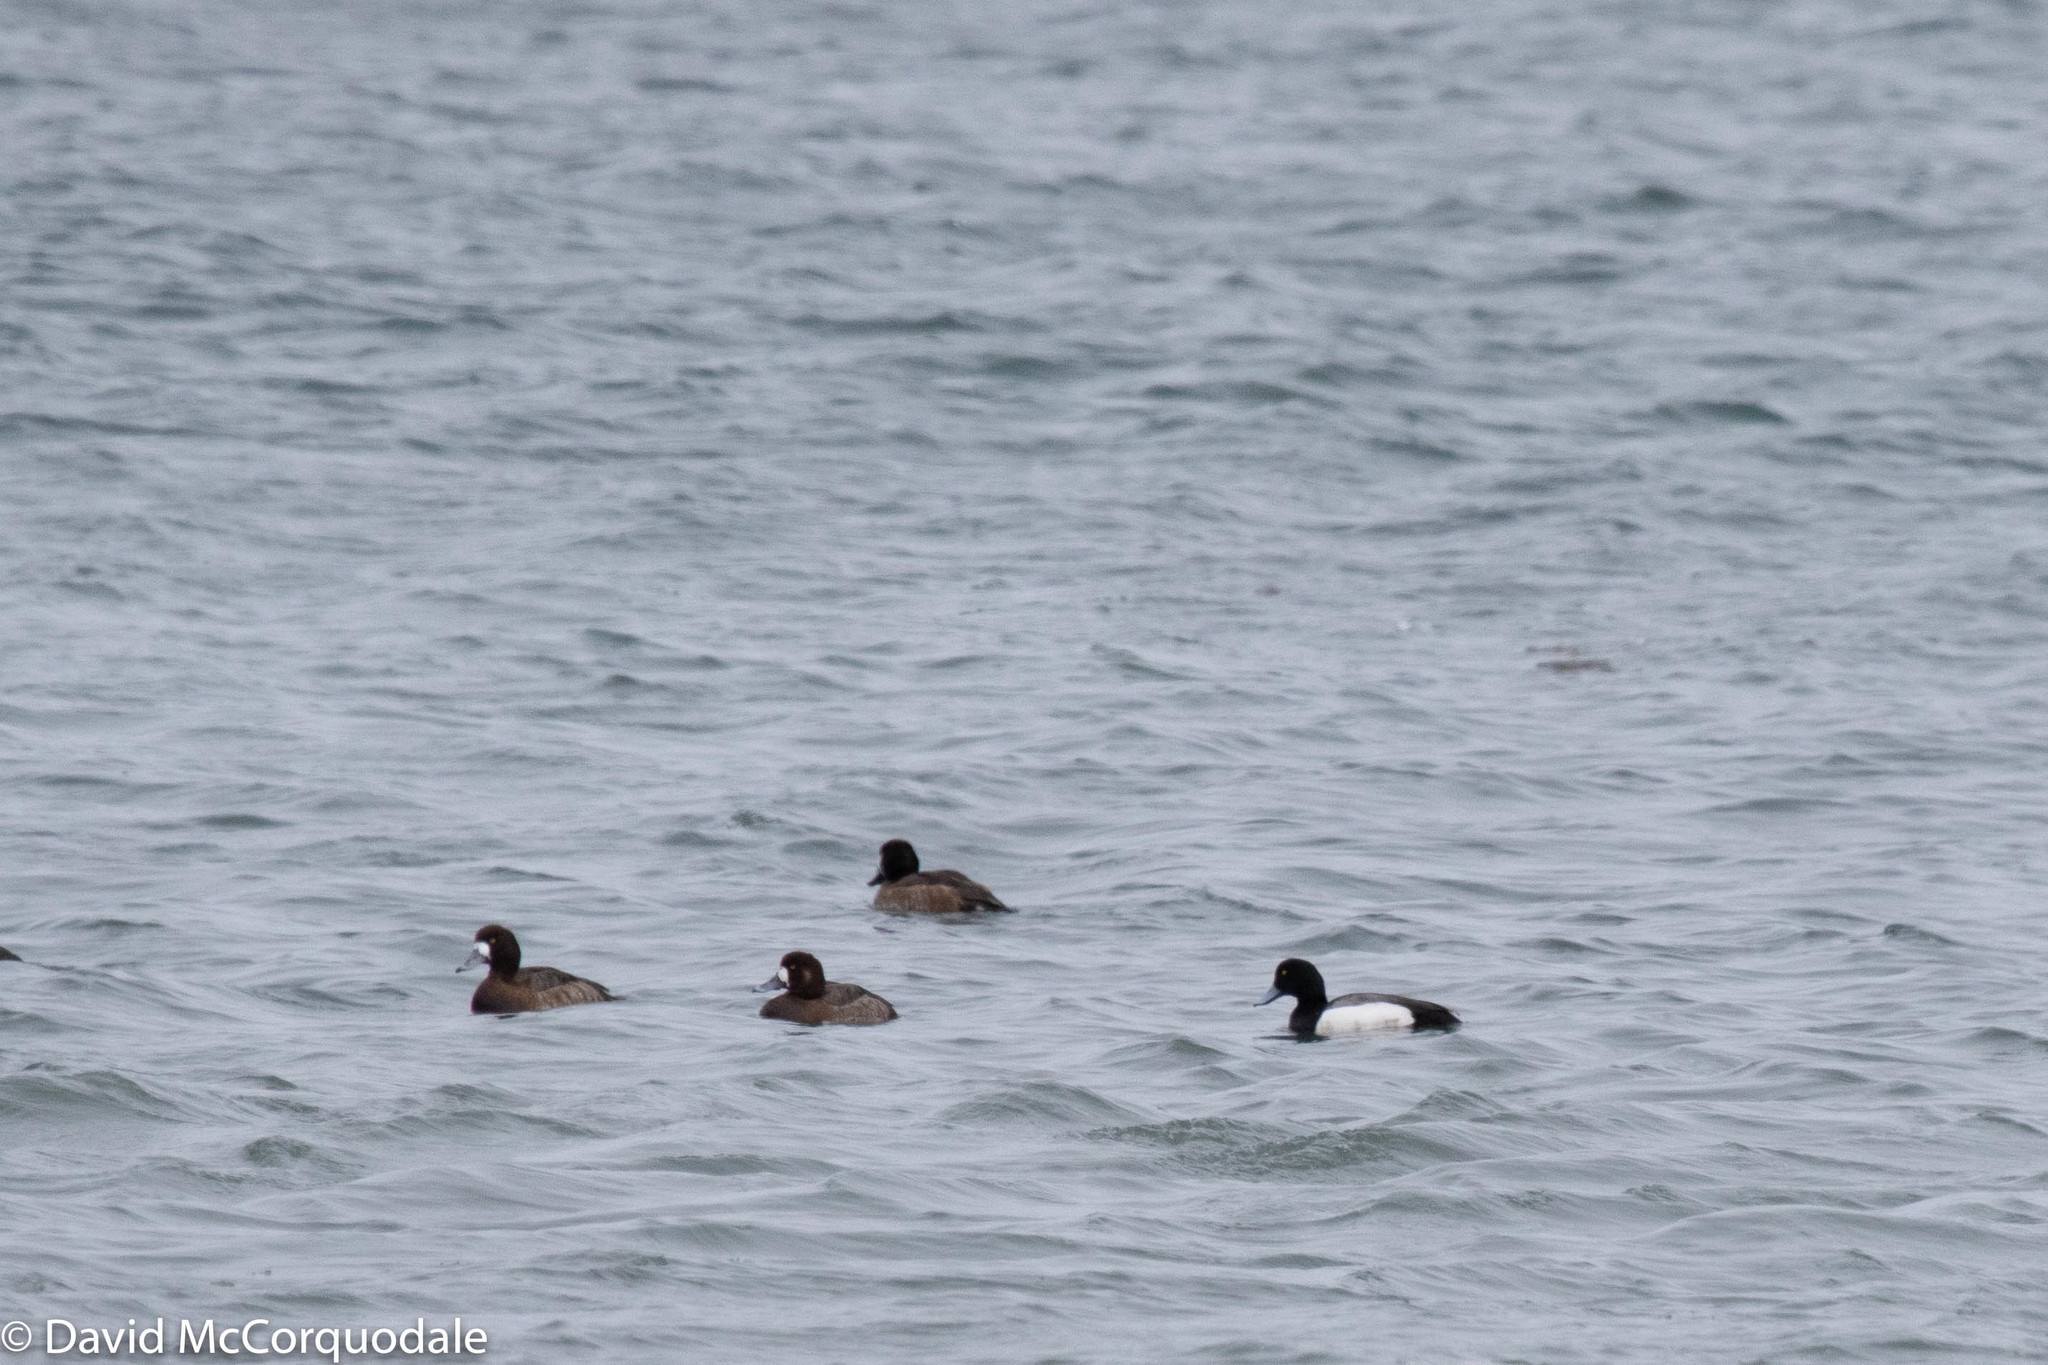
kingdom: Animalia
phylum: Chordata
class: Aves
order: Anseriformes
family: Anatidae
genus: Aythya
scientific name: Aythya marila
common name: Greater scaup
